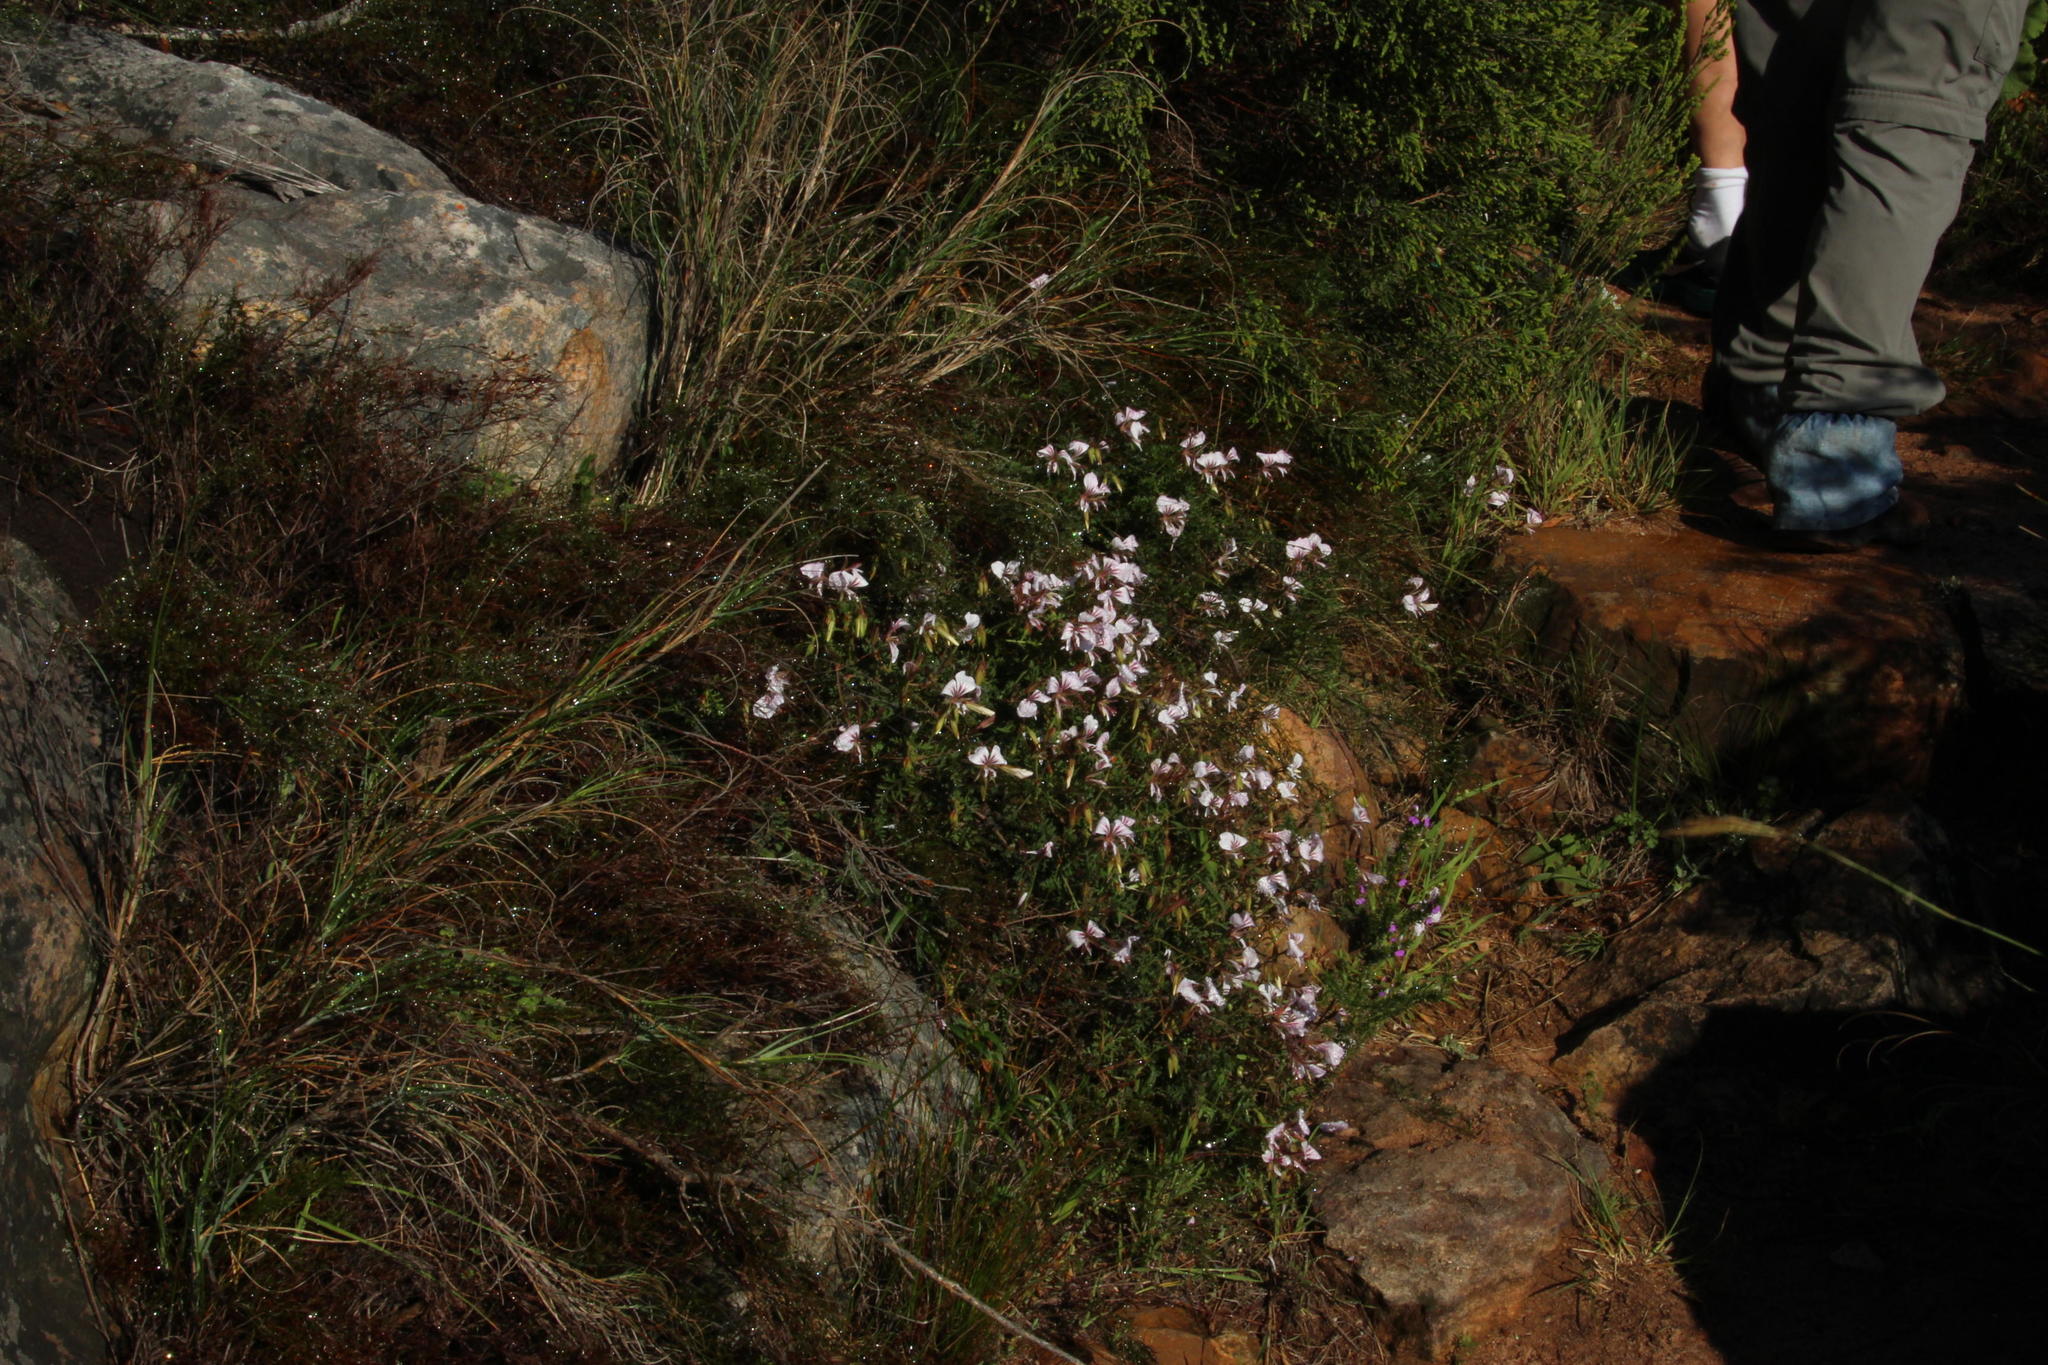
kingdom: Plantae
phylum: Tracheophyta
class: Magnoliopsida
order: Geraniales
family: Geraniaceae
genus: Pelargonium
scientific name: Pelargonium myrrhifolium
